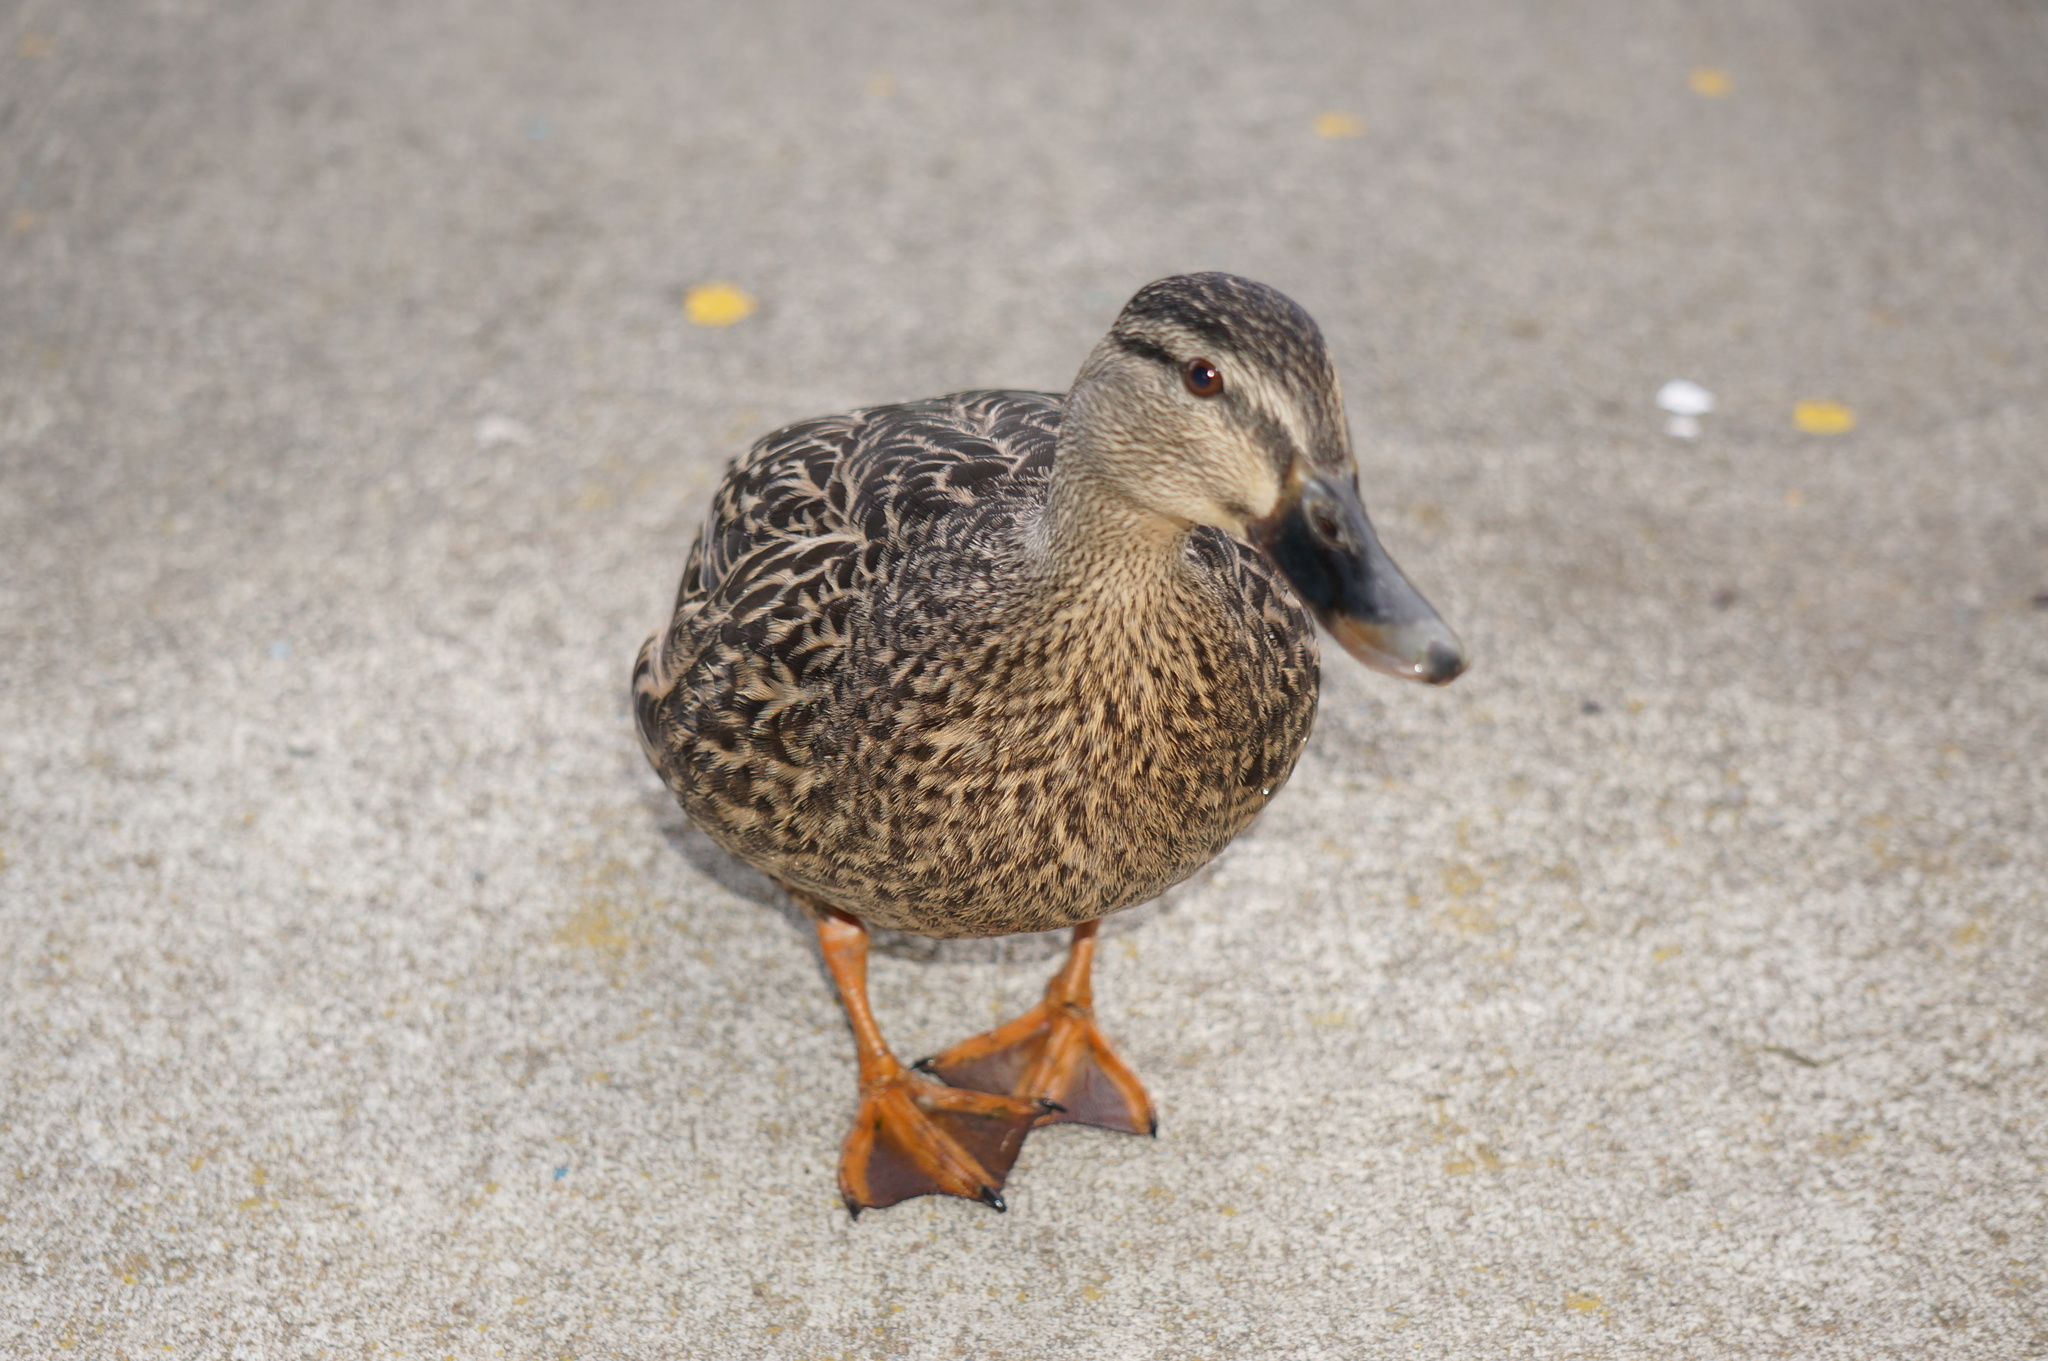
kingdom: Animalia
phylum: Chordata
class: Aves
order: Anseriformes
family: Anatidae
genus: Anas
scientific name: Anas
